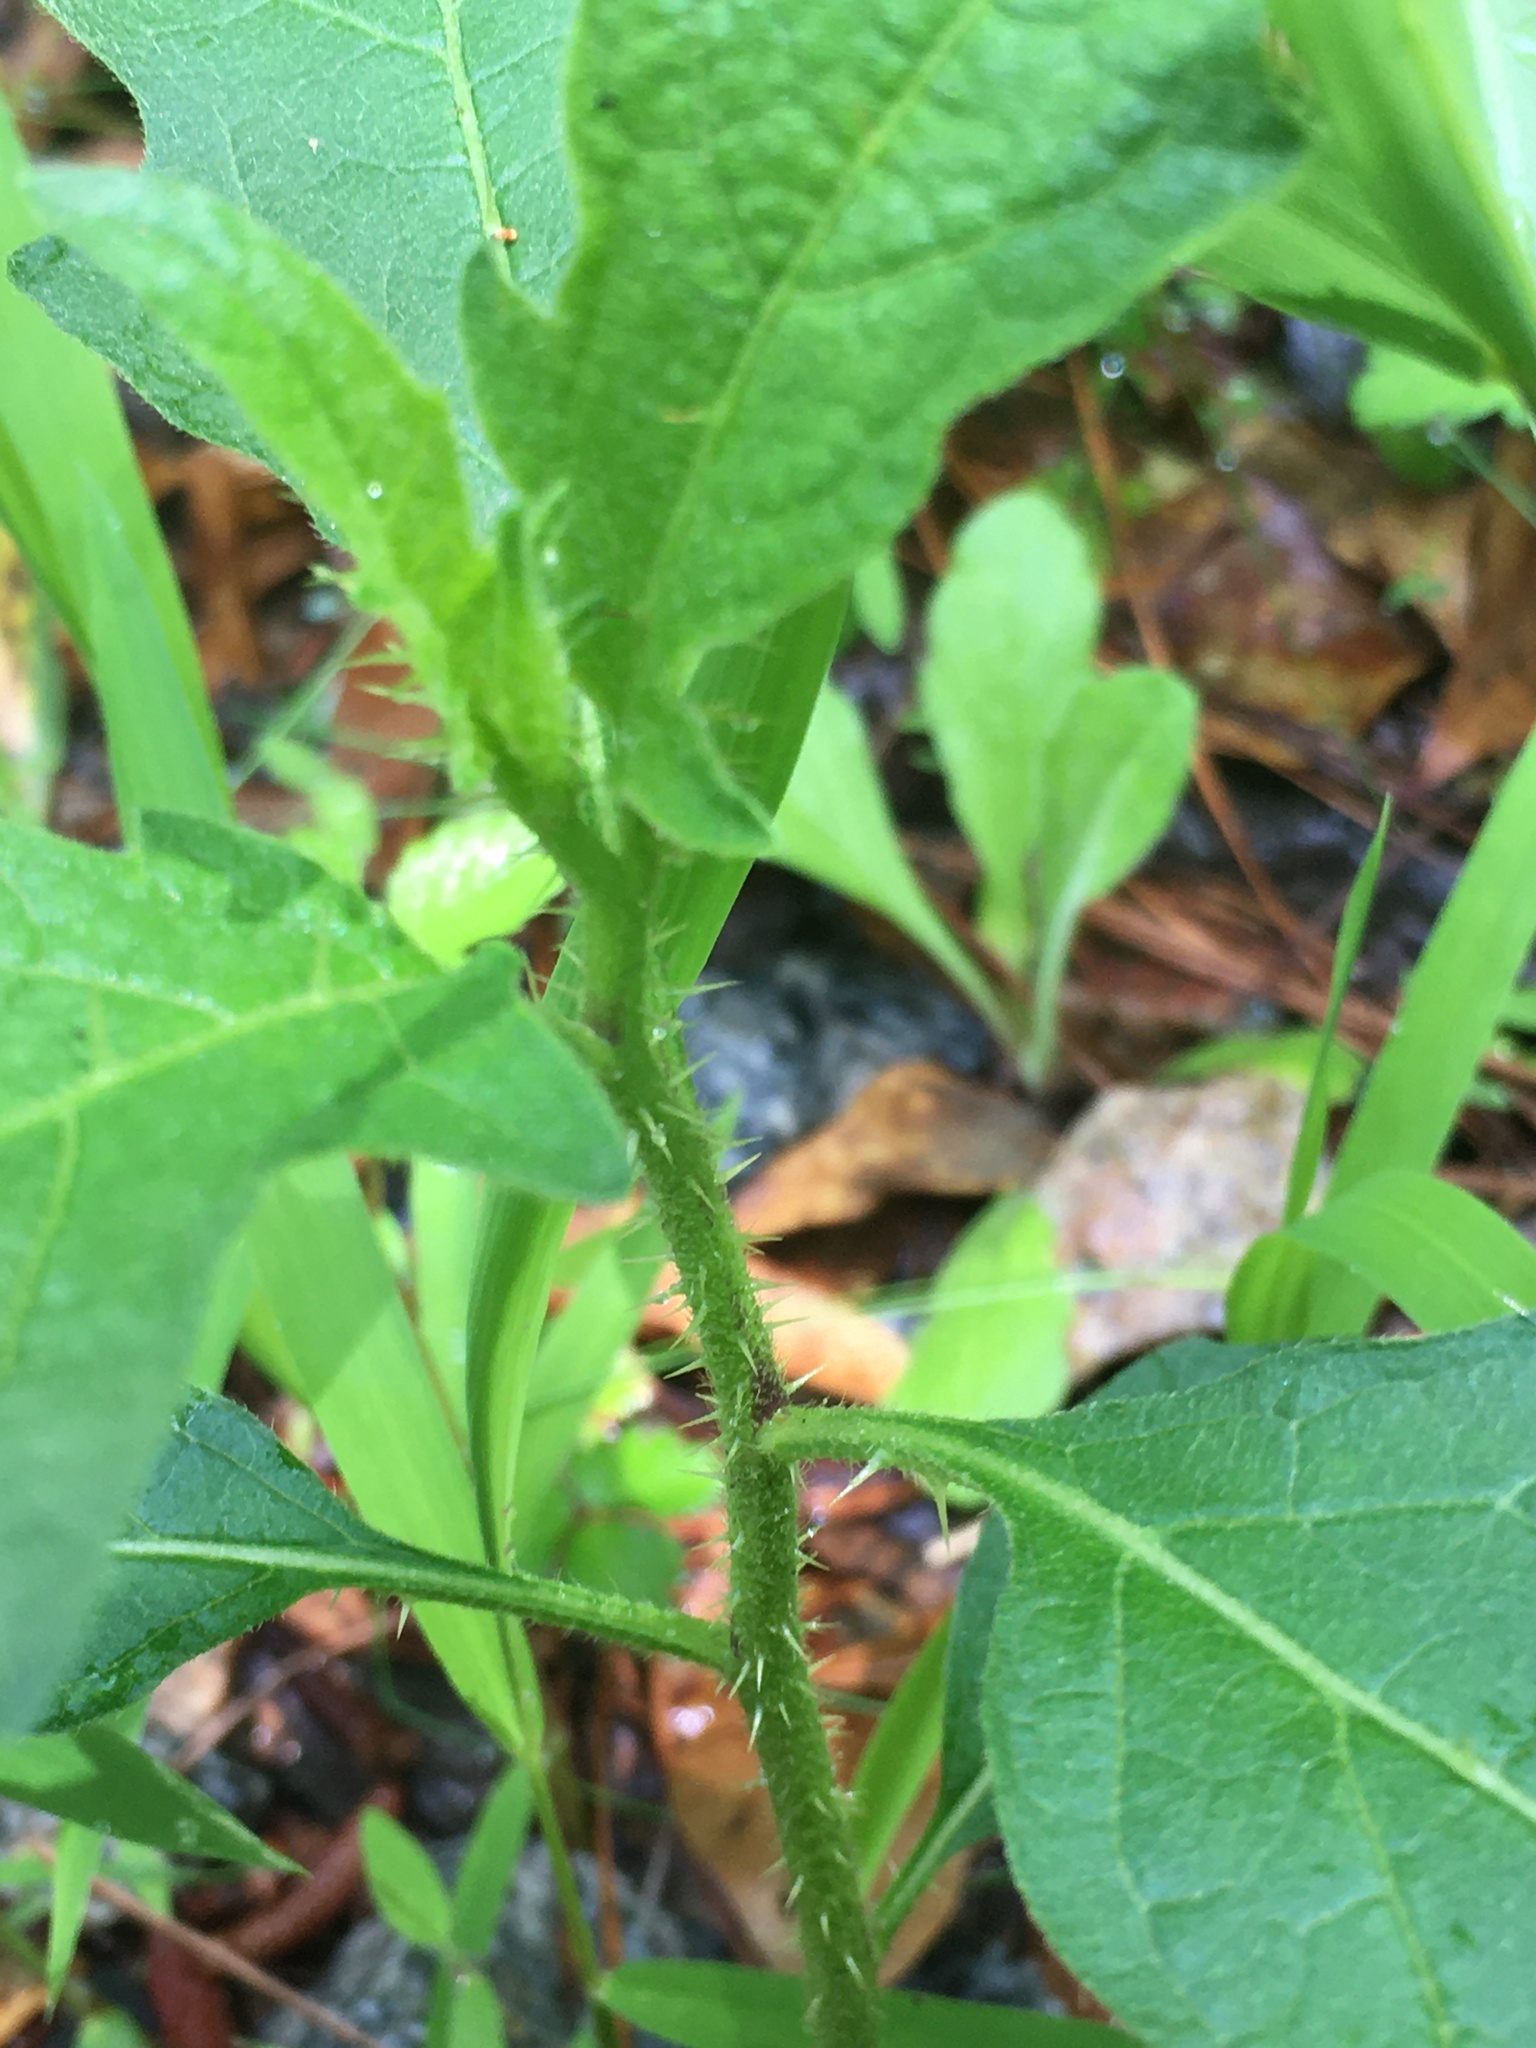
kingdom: Plantae
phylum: Tracheophyta
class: Magnoliopsida
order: Solanales
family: Solanaceae
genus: Solanum
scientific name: Solanum carolinense
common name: Horse-nettle
